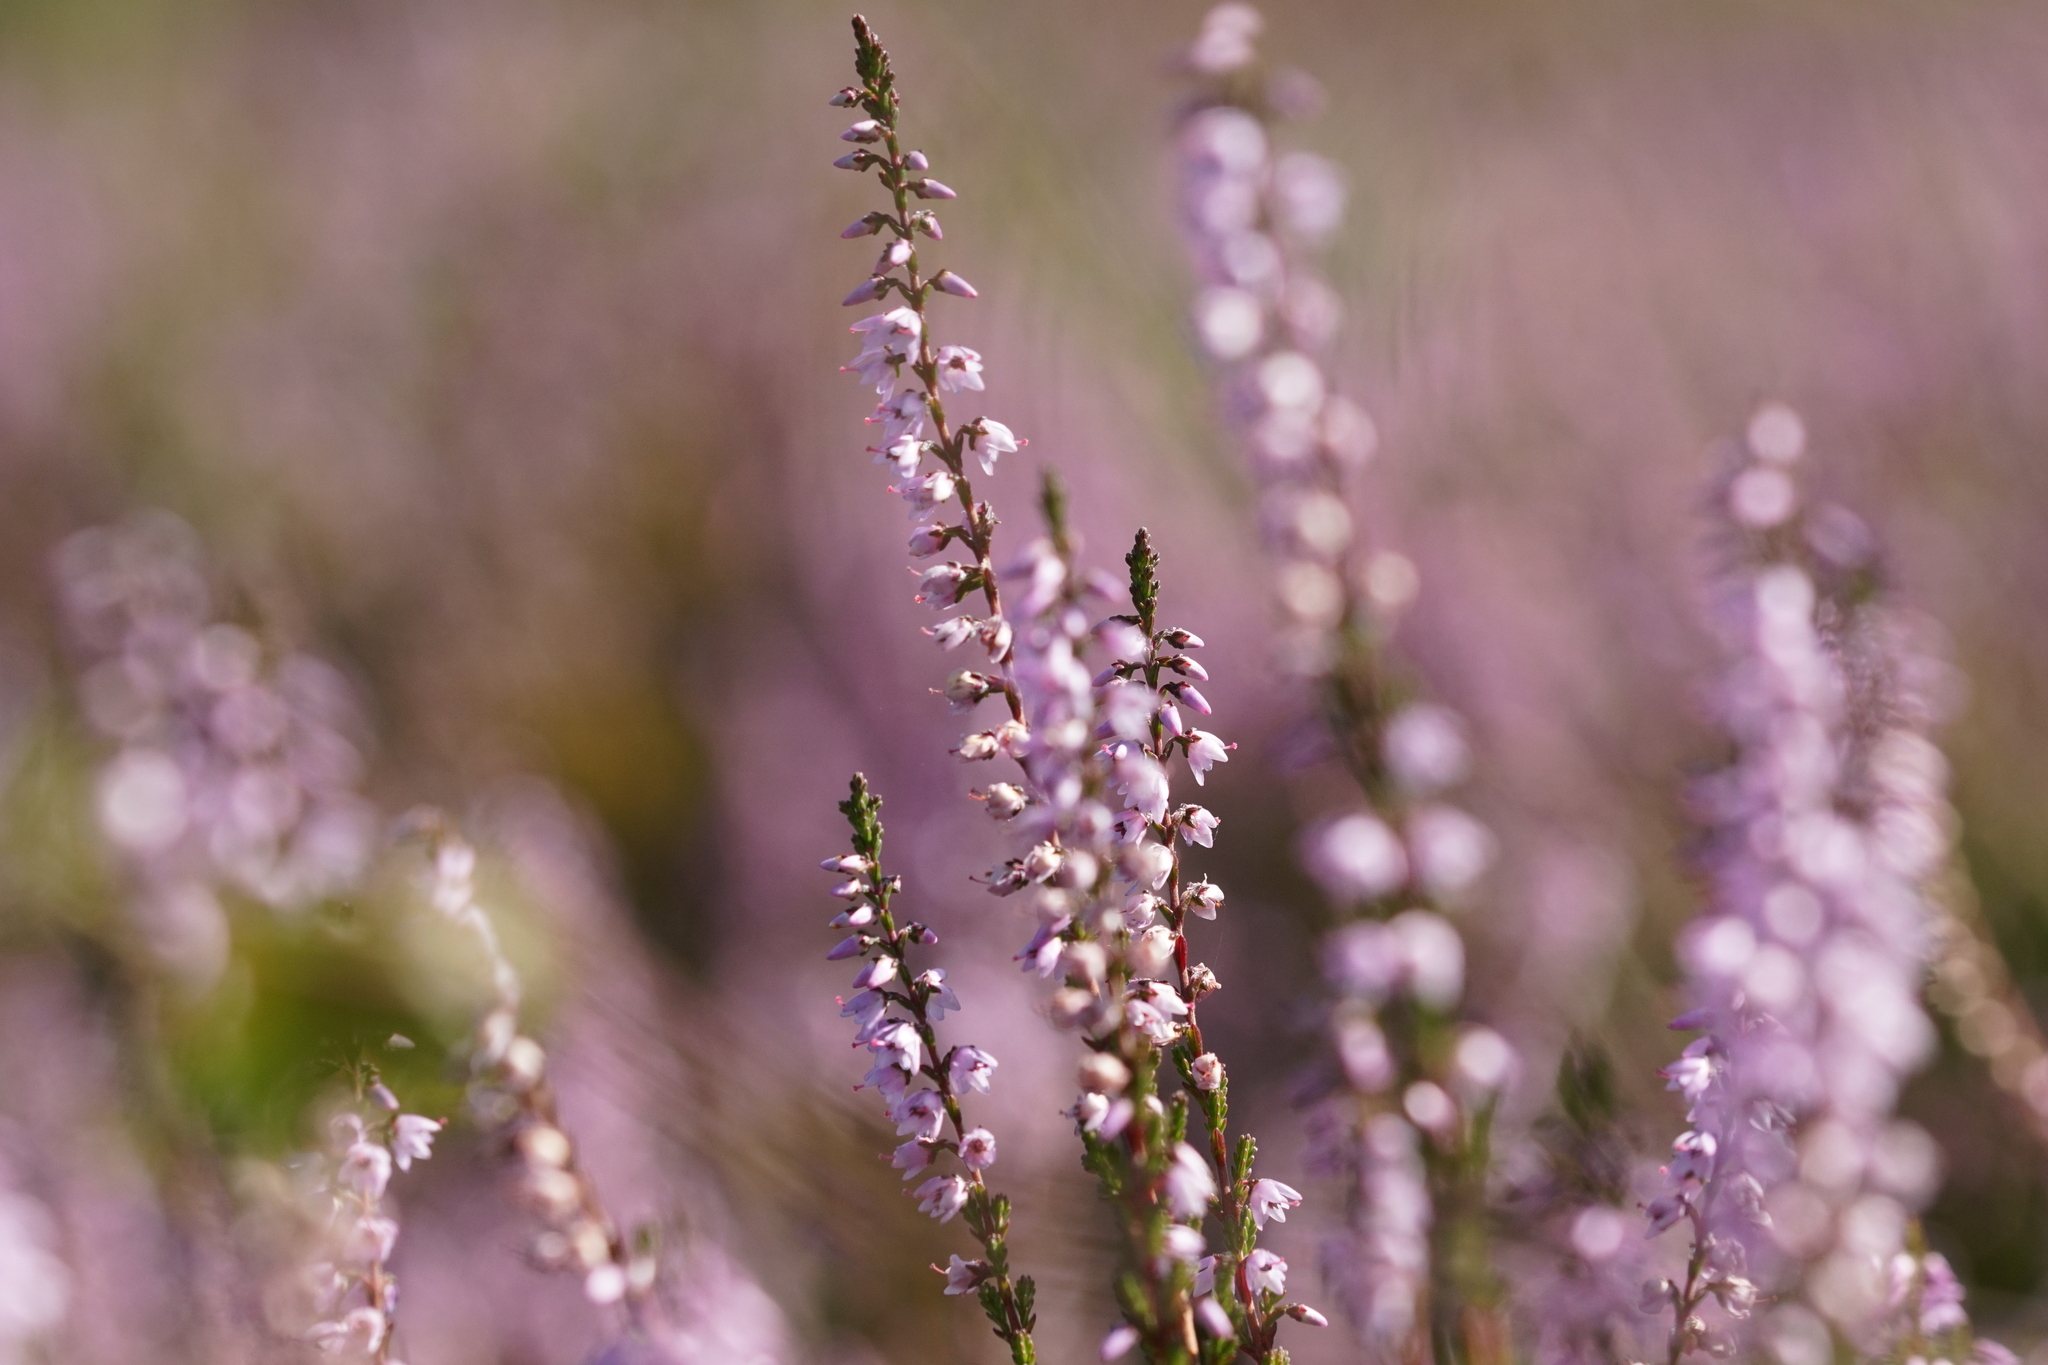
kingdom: Plantae
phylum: Tracheophyta
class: Magnoliopsida
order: Ericales
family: Ericaceae
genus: Calluna
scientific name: Calluna vulgaris
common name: Heather
